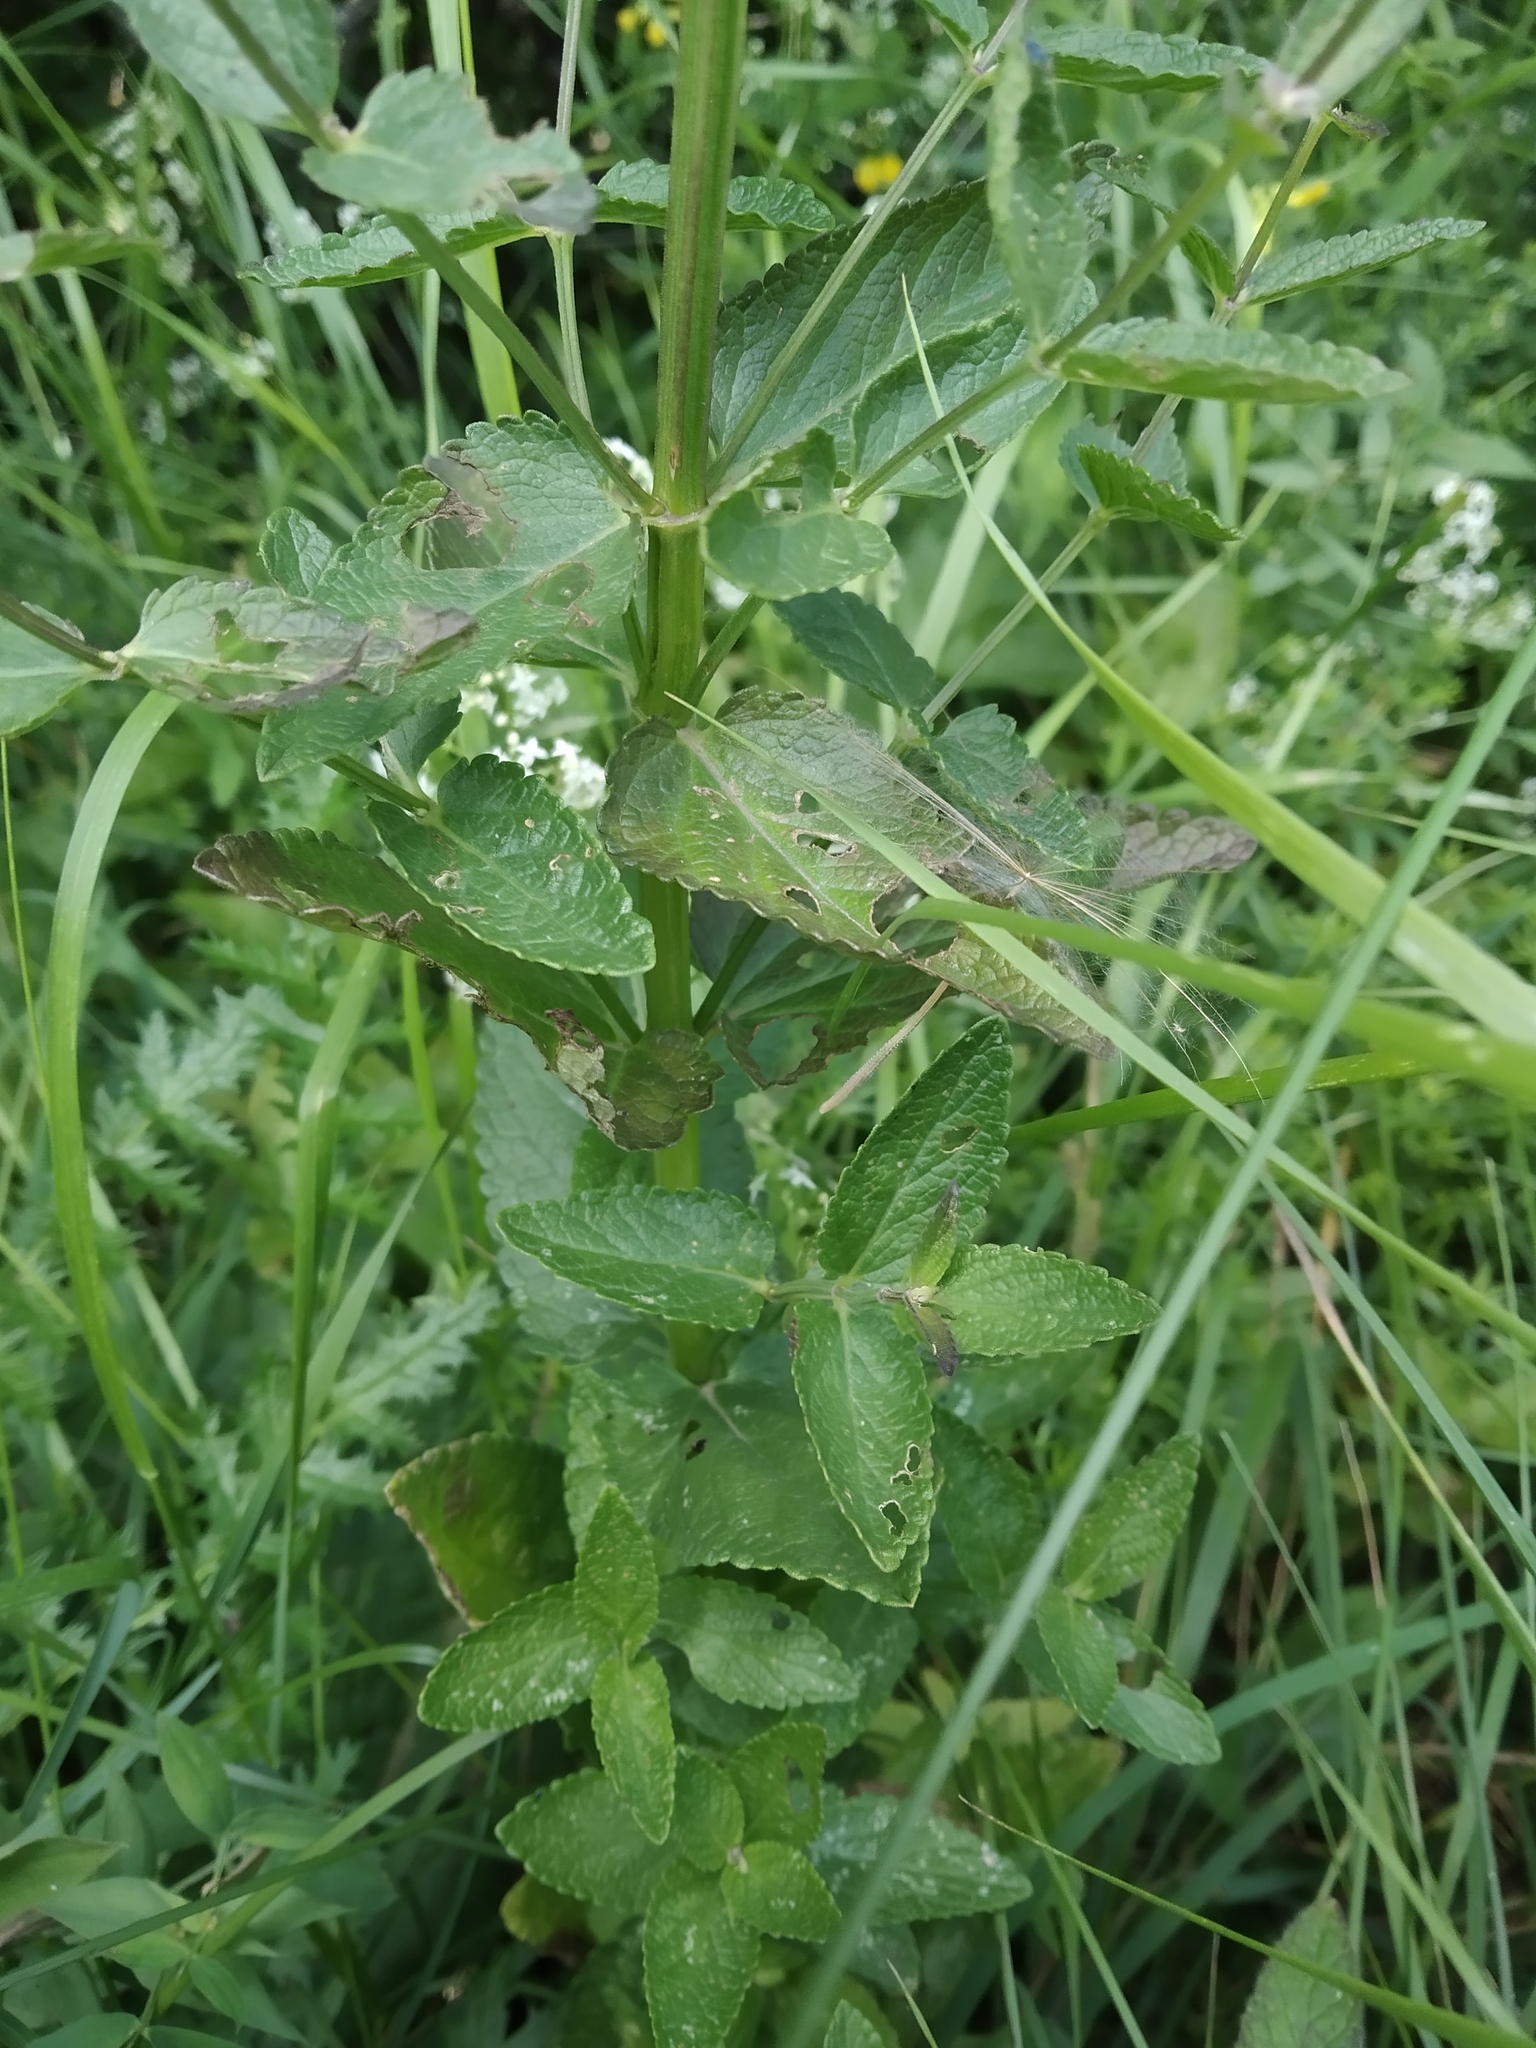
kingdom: Plantae
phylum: Tracheophyta
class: Magnoliopsida
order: Lamiales
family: Lamiaceae
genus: Nepeta
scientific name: Nepeta nuda
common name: Hairless catmint
